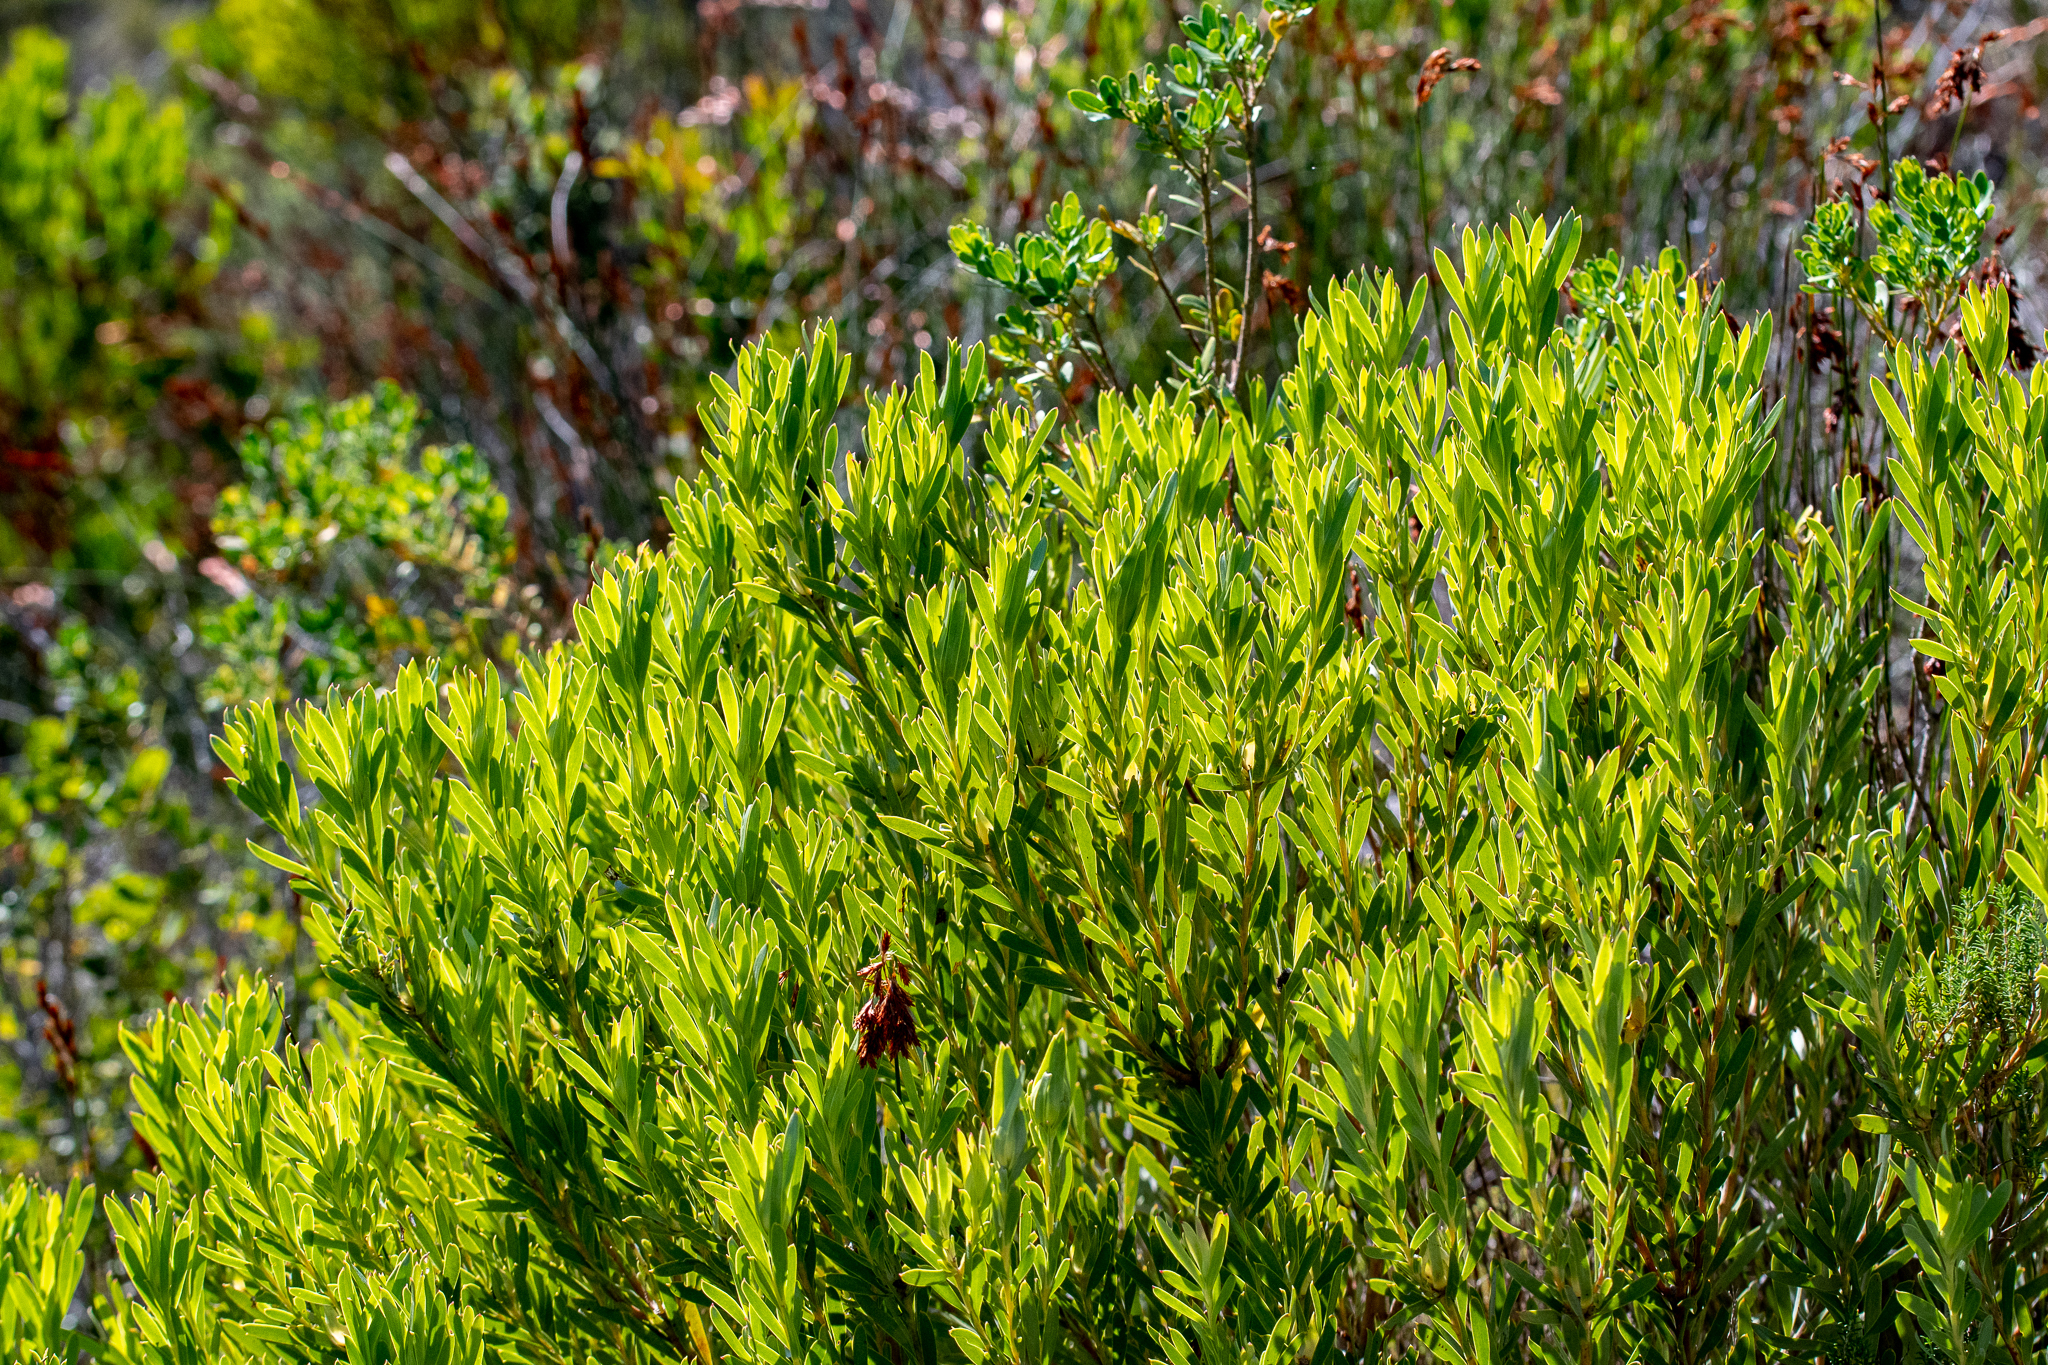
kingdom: Plantae
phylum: Tracheophyta
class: Magnoliopsida
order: Proteales
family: Proteaceae
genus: Leucadendron
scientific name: Leucadendron meridianum
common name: Limestone conebush
